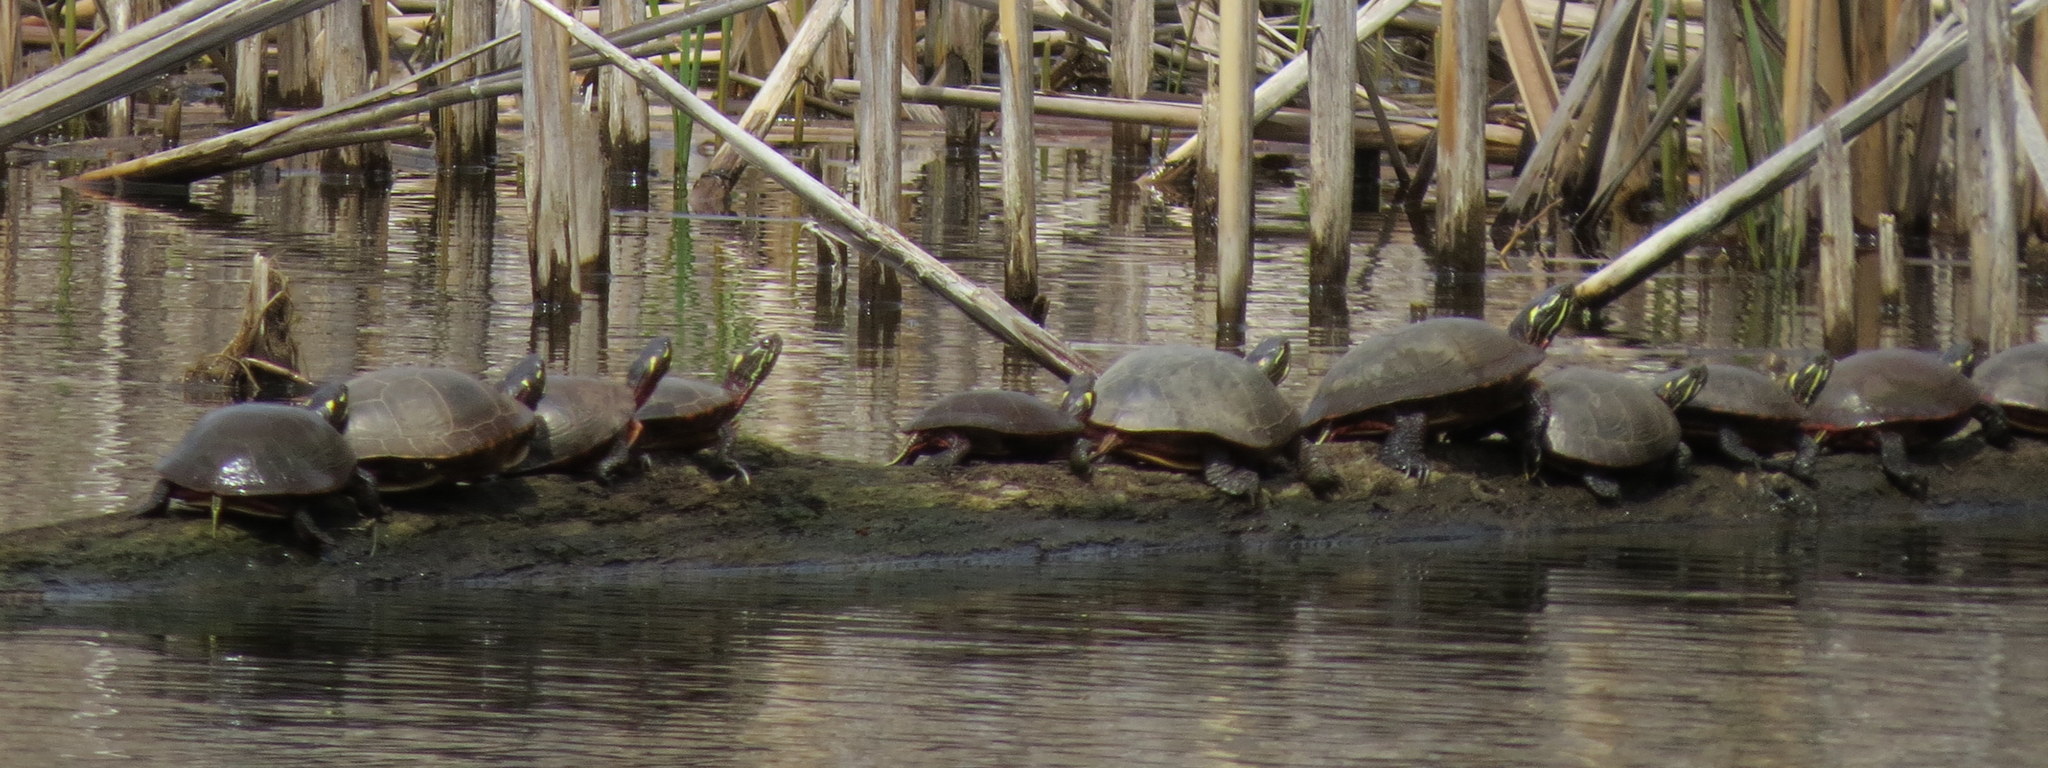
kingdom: Animalia
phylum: Chordata
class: Testudines
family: Emydidae
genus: Chrysemys
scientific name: Chrysemys picta
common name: Painted turtle
